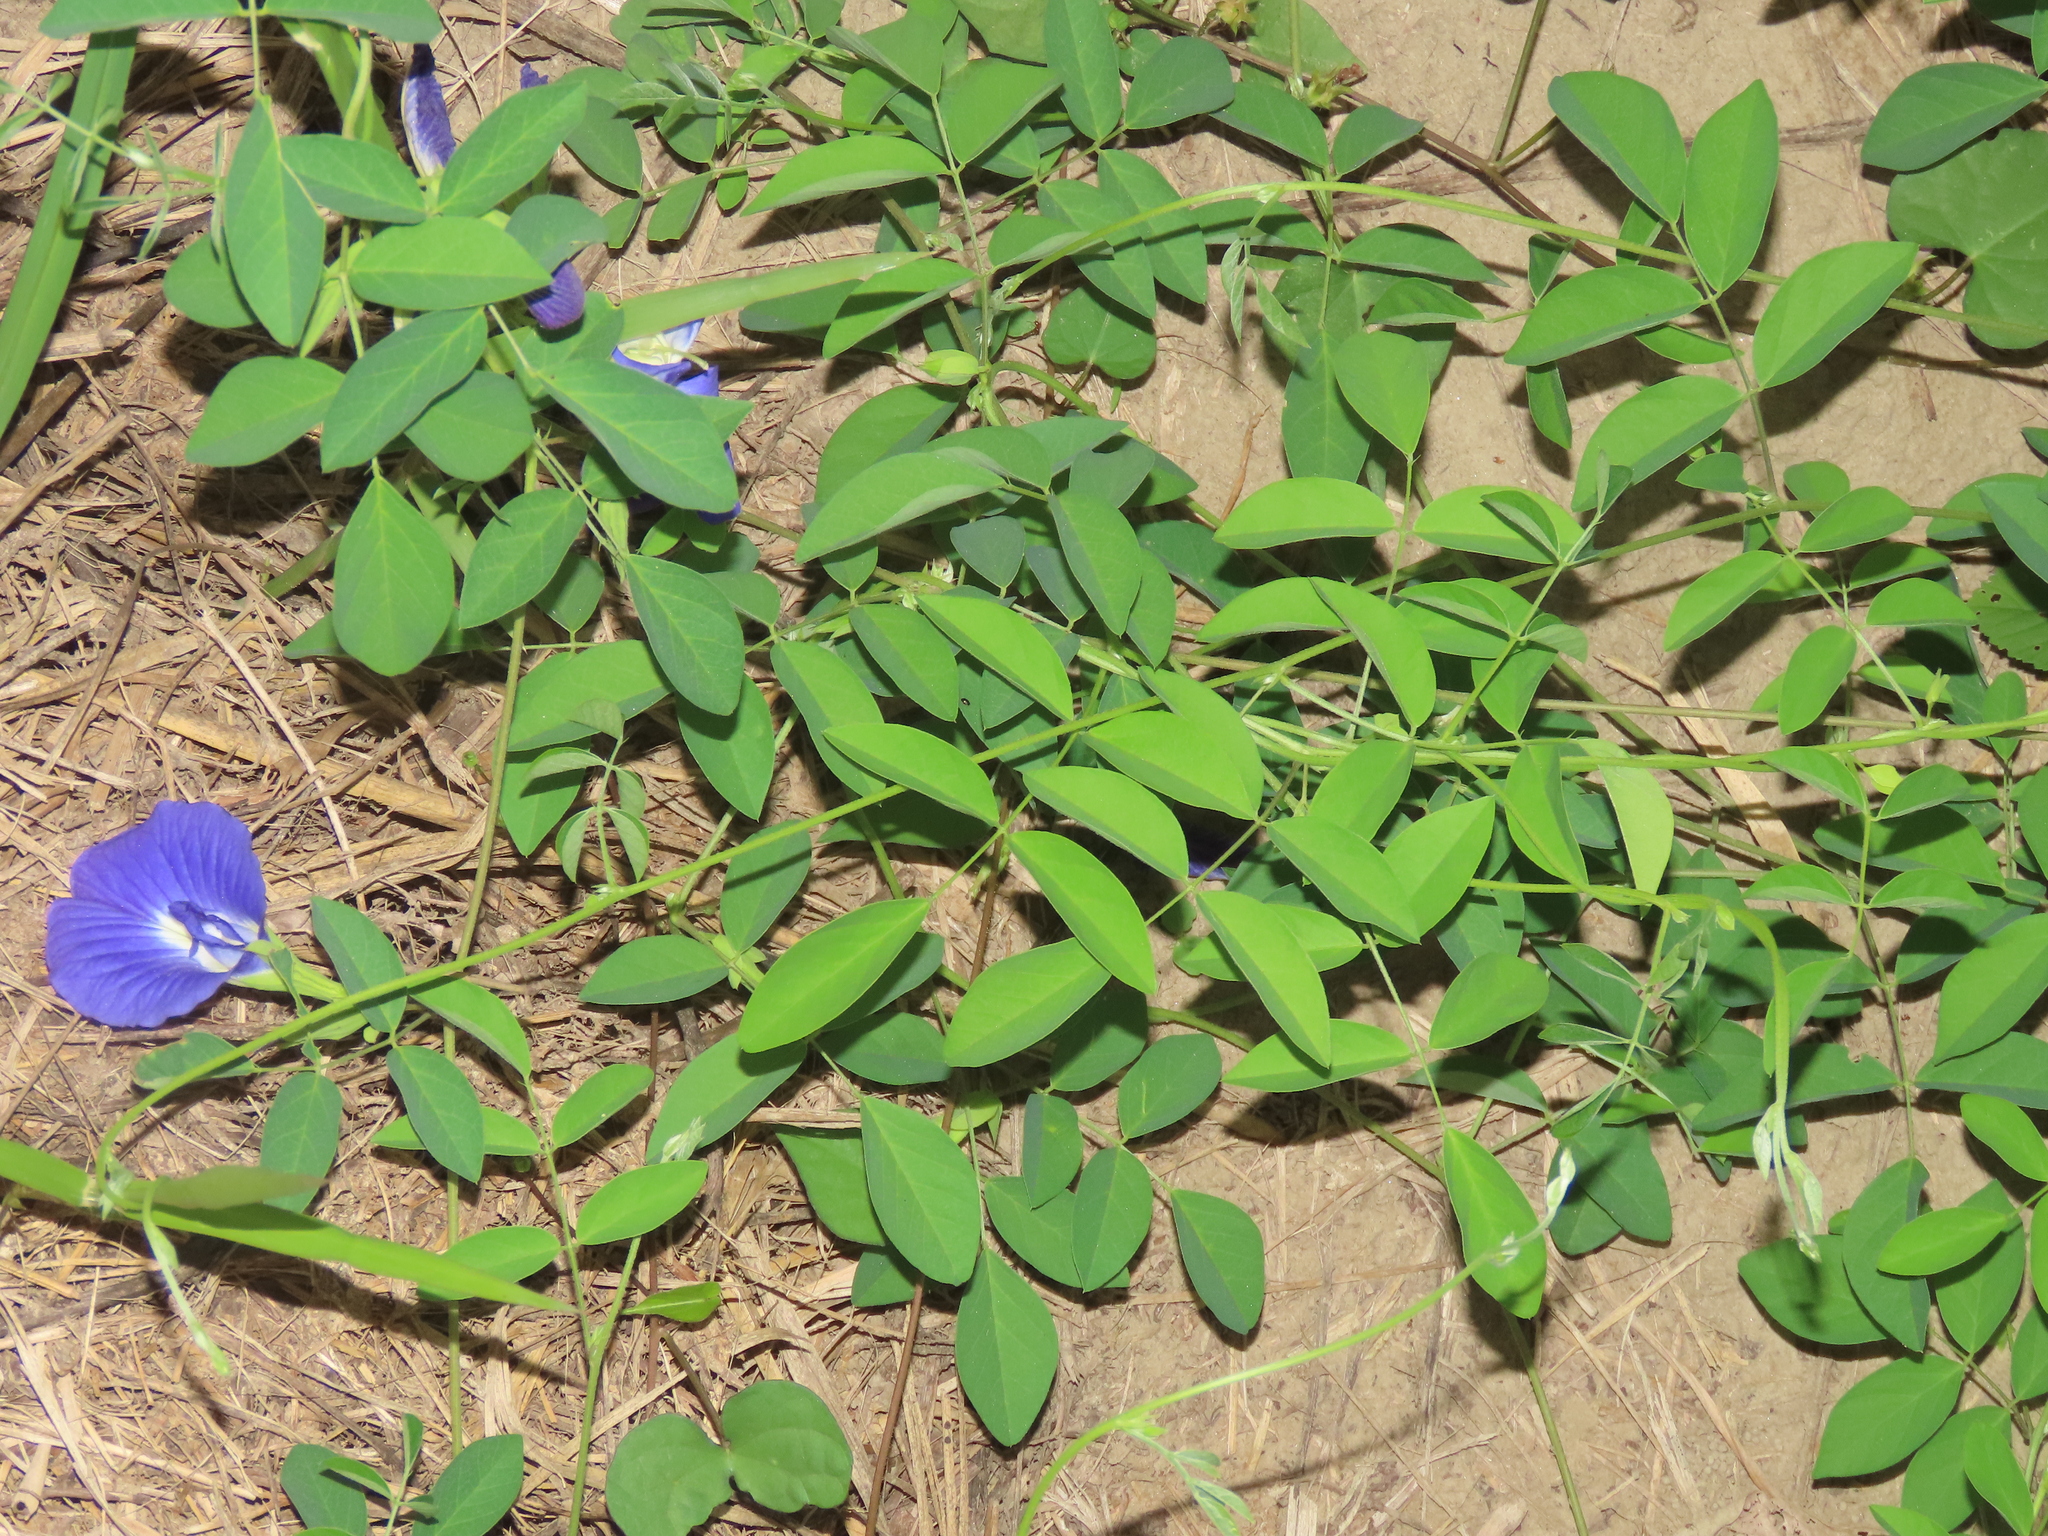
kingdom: Plantae
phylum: Tracheophyta
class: Magnoliopsida
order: Fabales
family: Fabaceae
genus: Clitoria
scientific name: Clitoria ternatea
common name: Asian pigeonwings
